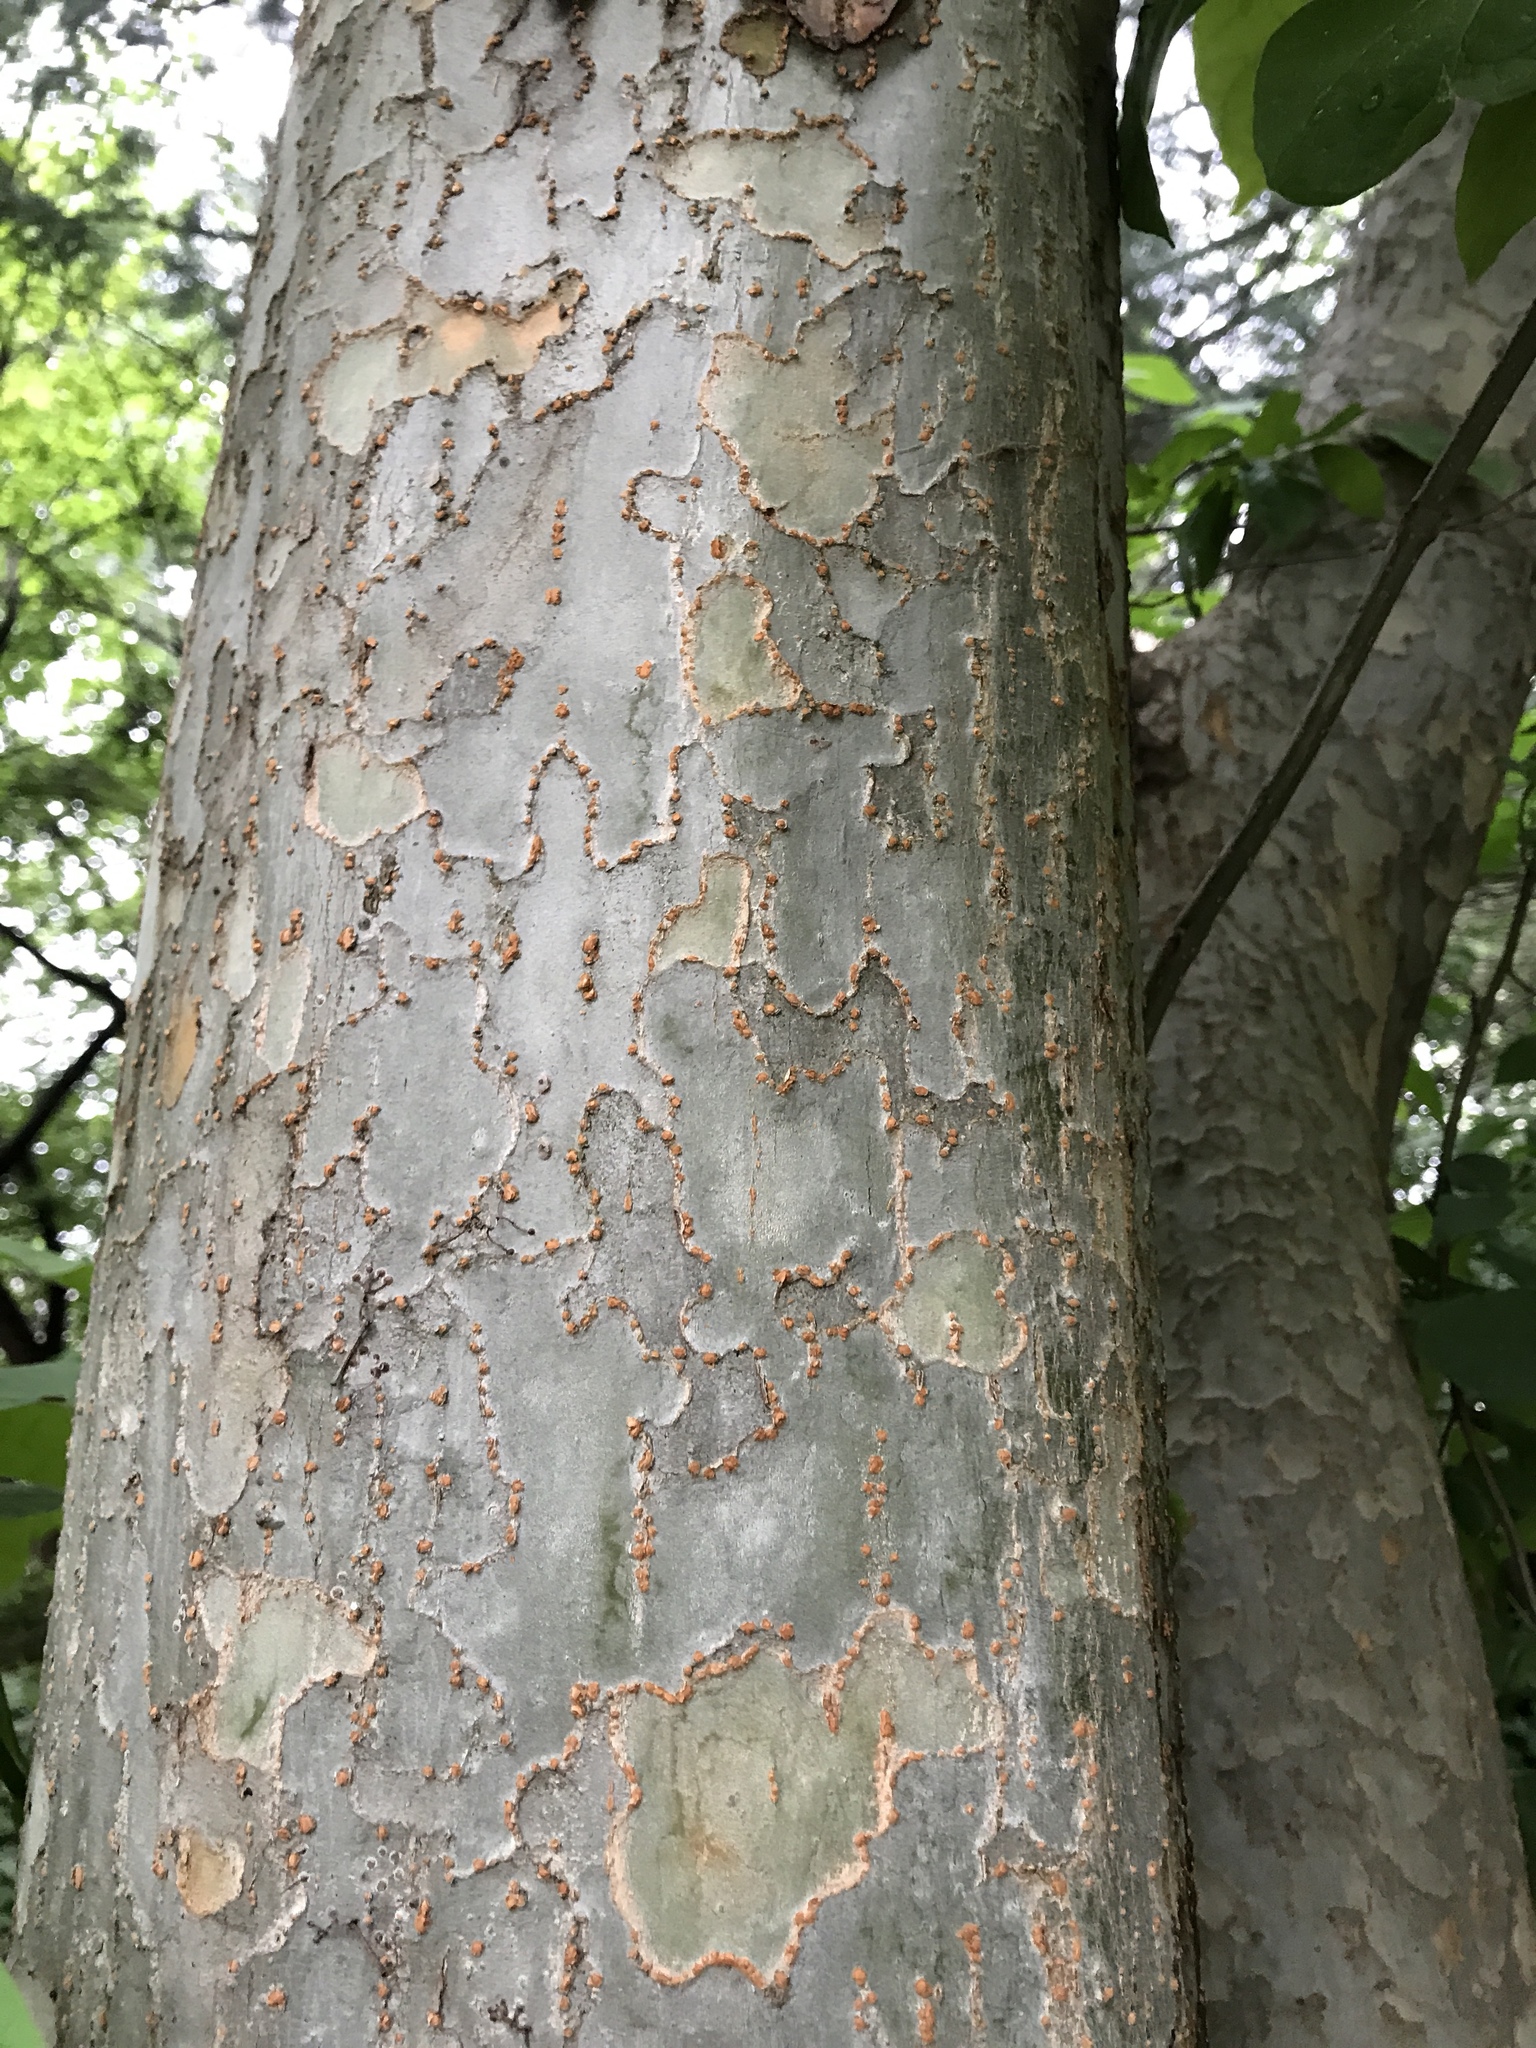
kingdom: Plantae
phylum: Tracheophyta
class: Magnoliopsida
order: Rosales
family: Ulmaceae
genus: Ulmus
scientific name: Ulmus parvifolia
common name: Chinese elm
